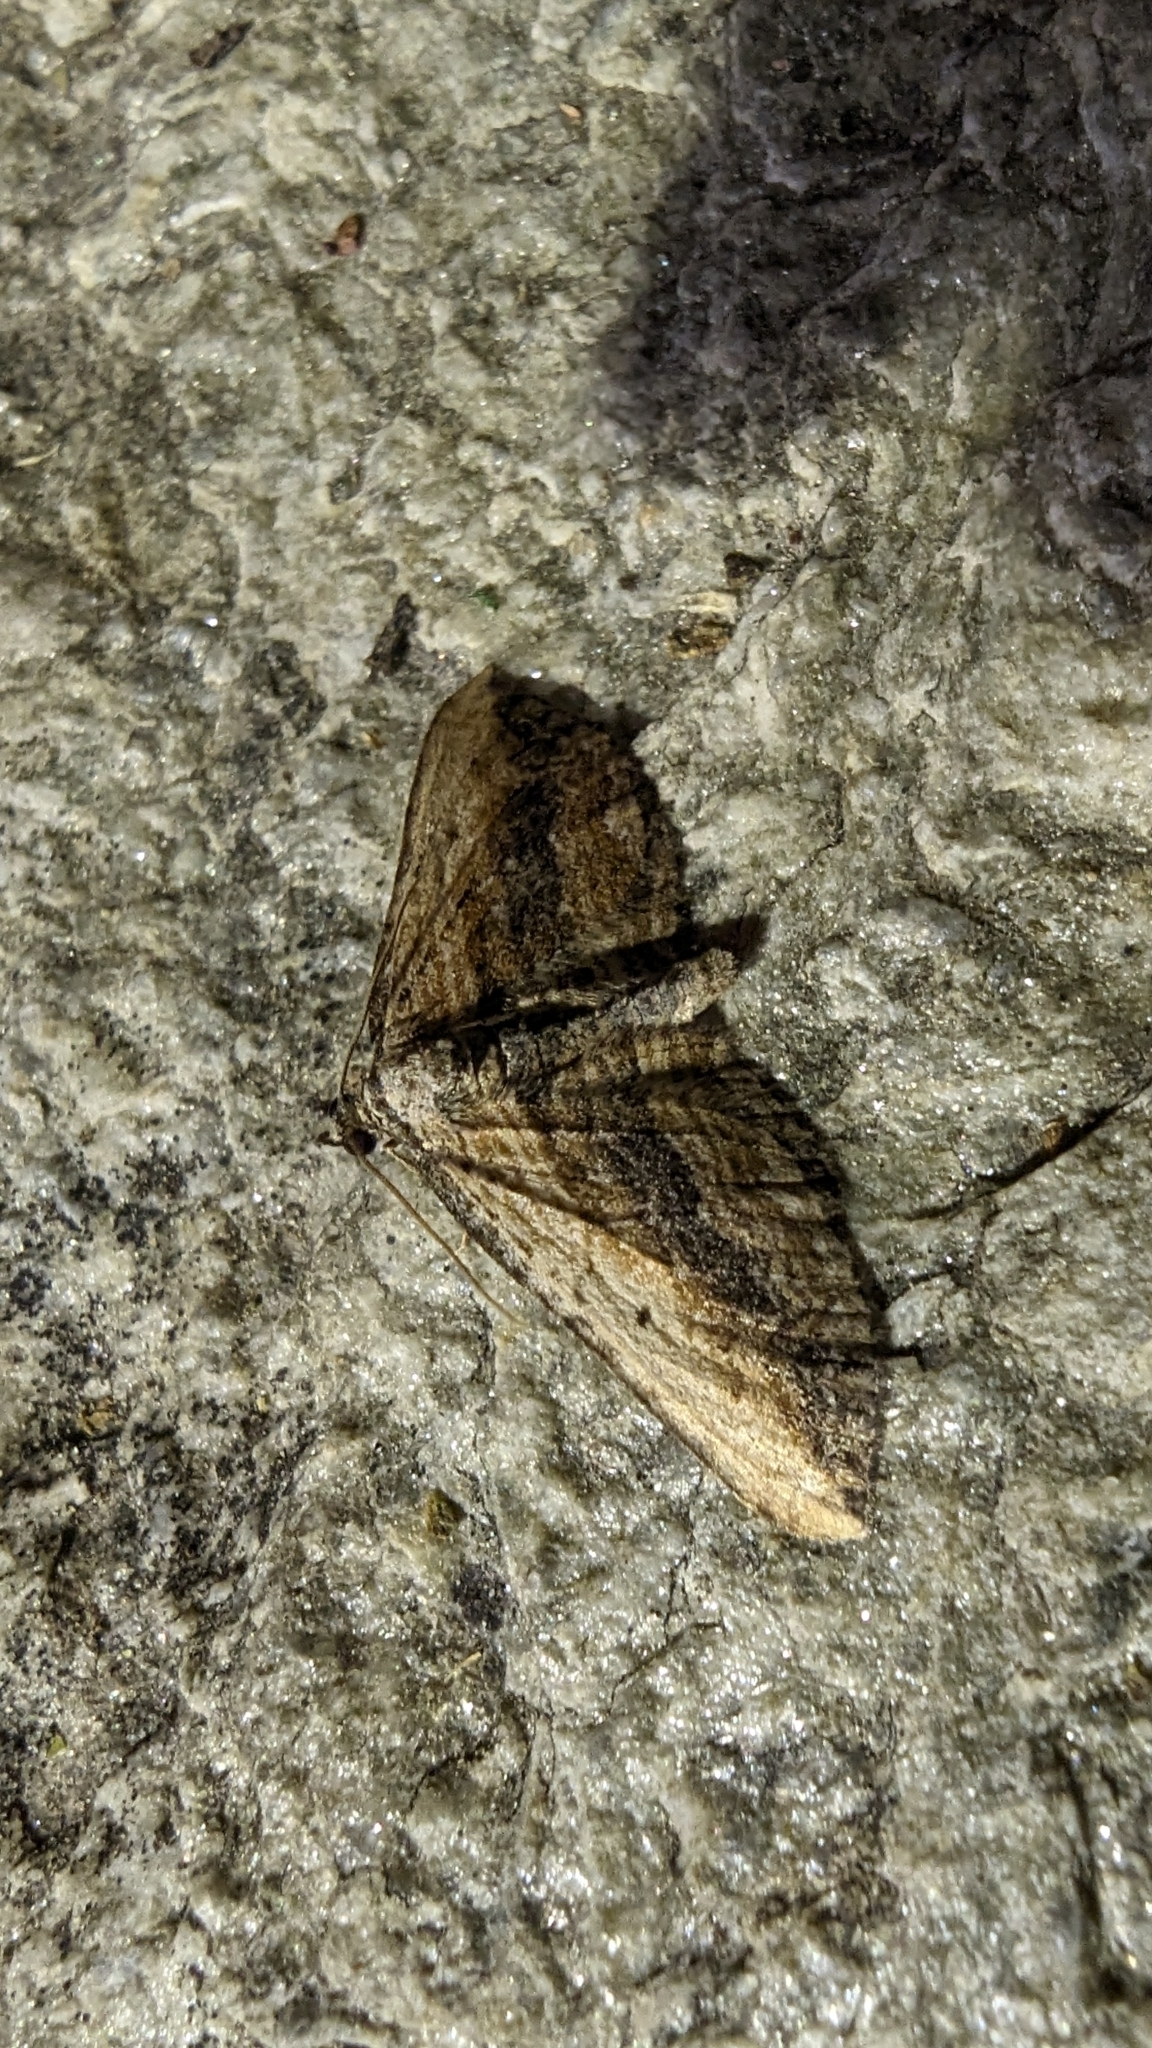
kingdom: Animalia
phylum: Arthropoda
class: Insecta
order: Lepidoptera
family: Geometridae
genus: Horisme
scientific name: Horisme vitalbata
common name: Small waved umber
